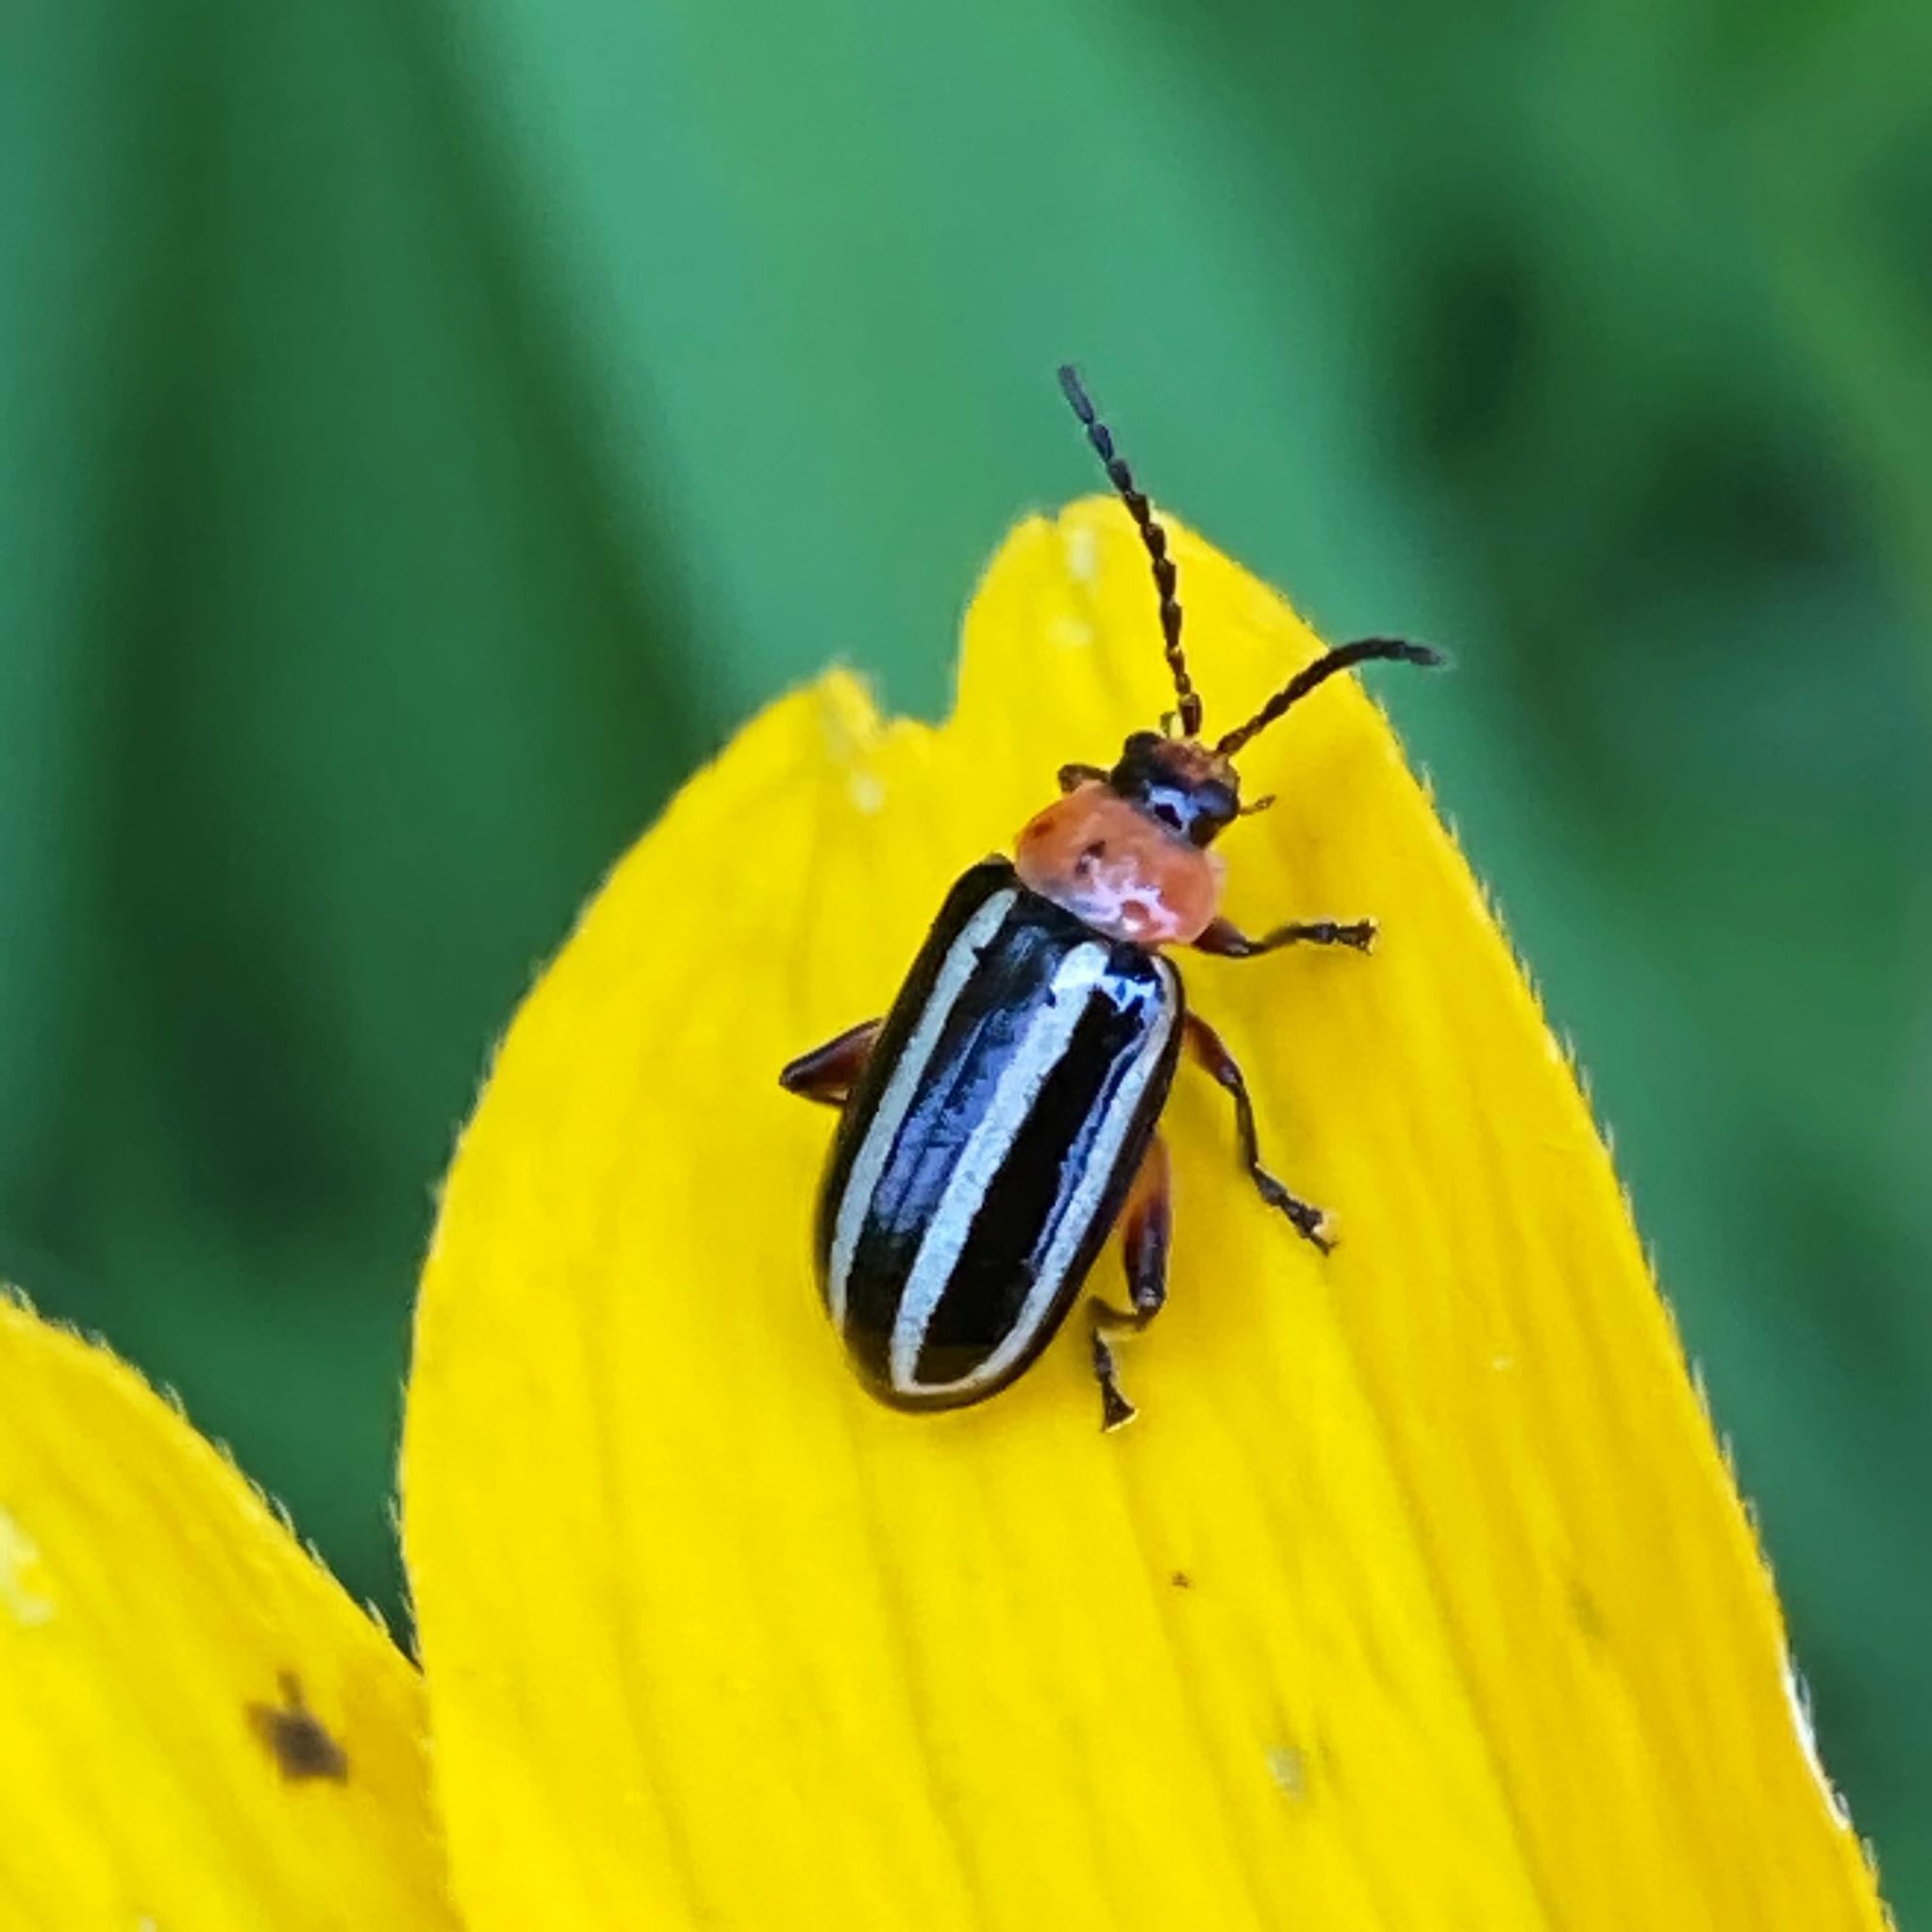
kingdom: Animalia
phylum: Arthropoda
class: Insecta
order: Coleoptera
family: Chrysomelidae
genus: Disonycha
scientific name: Disonycha glabrata
